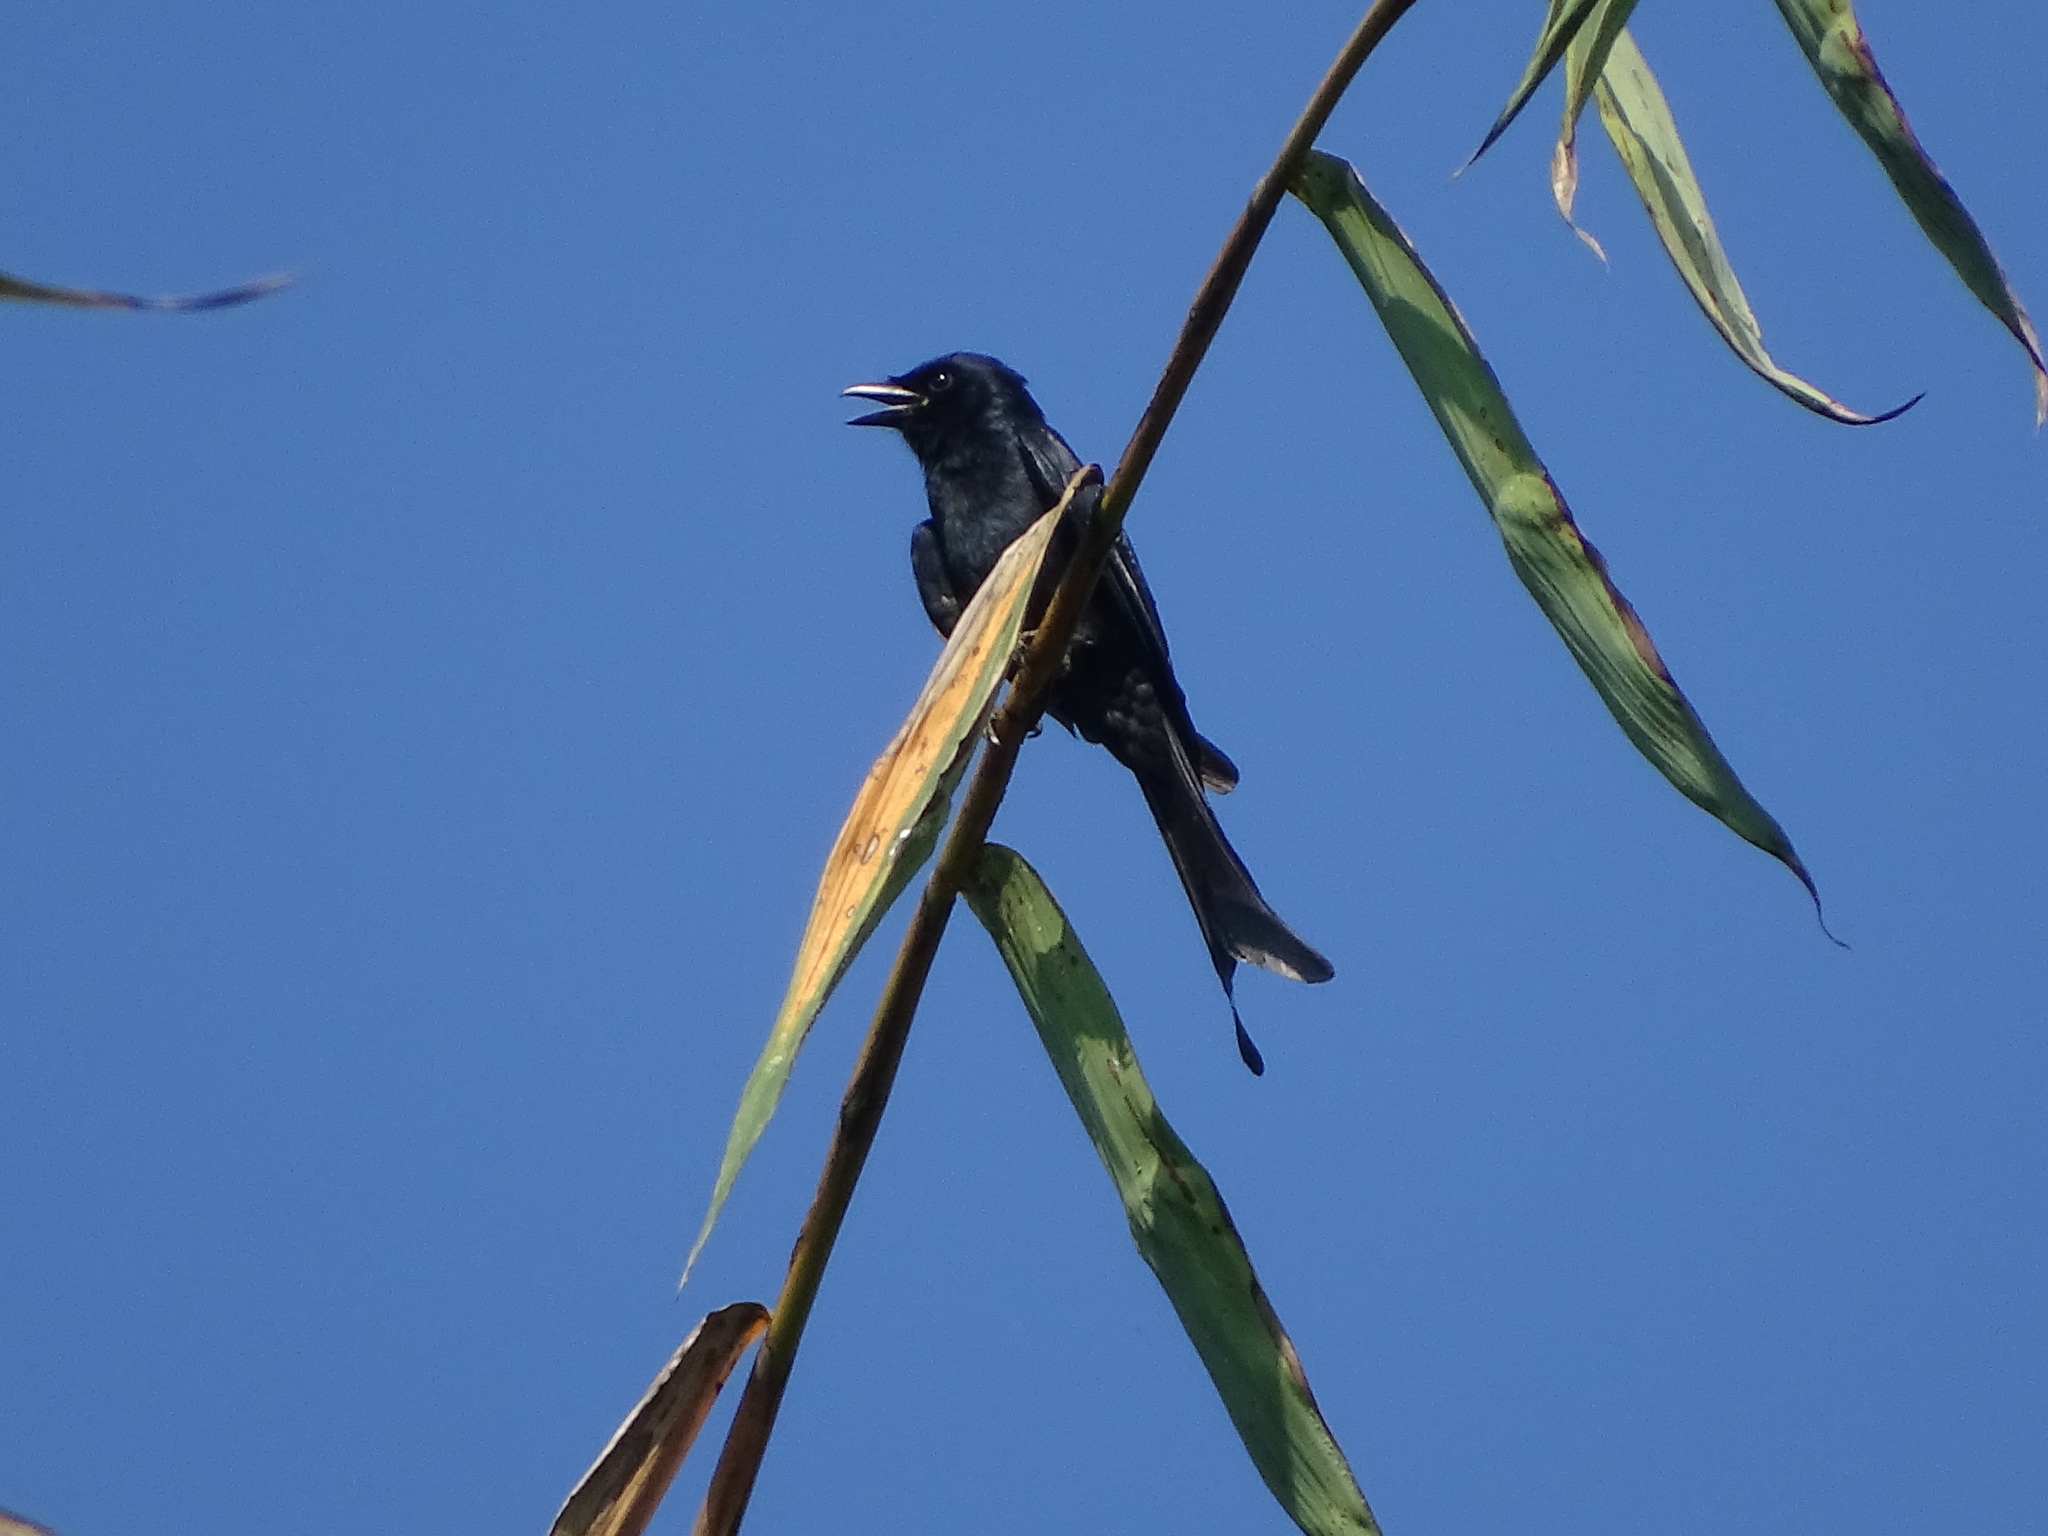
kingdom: Animalia
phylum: Chordata
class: Aves
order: Passeriformes
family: Dicruridae
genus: Dicrurus
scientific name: Dicrurus macrocercus
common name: Black drongo
